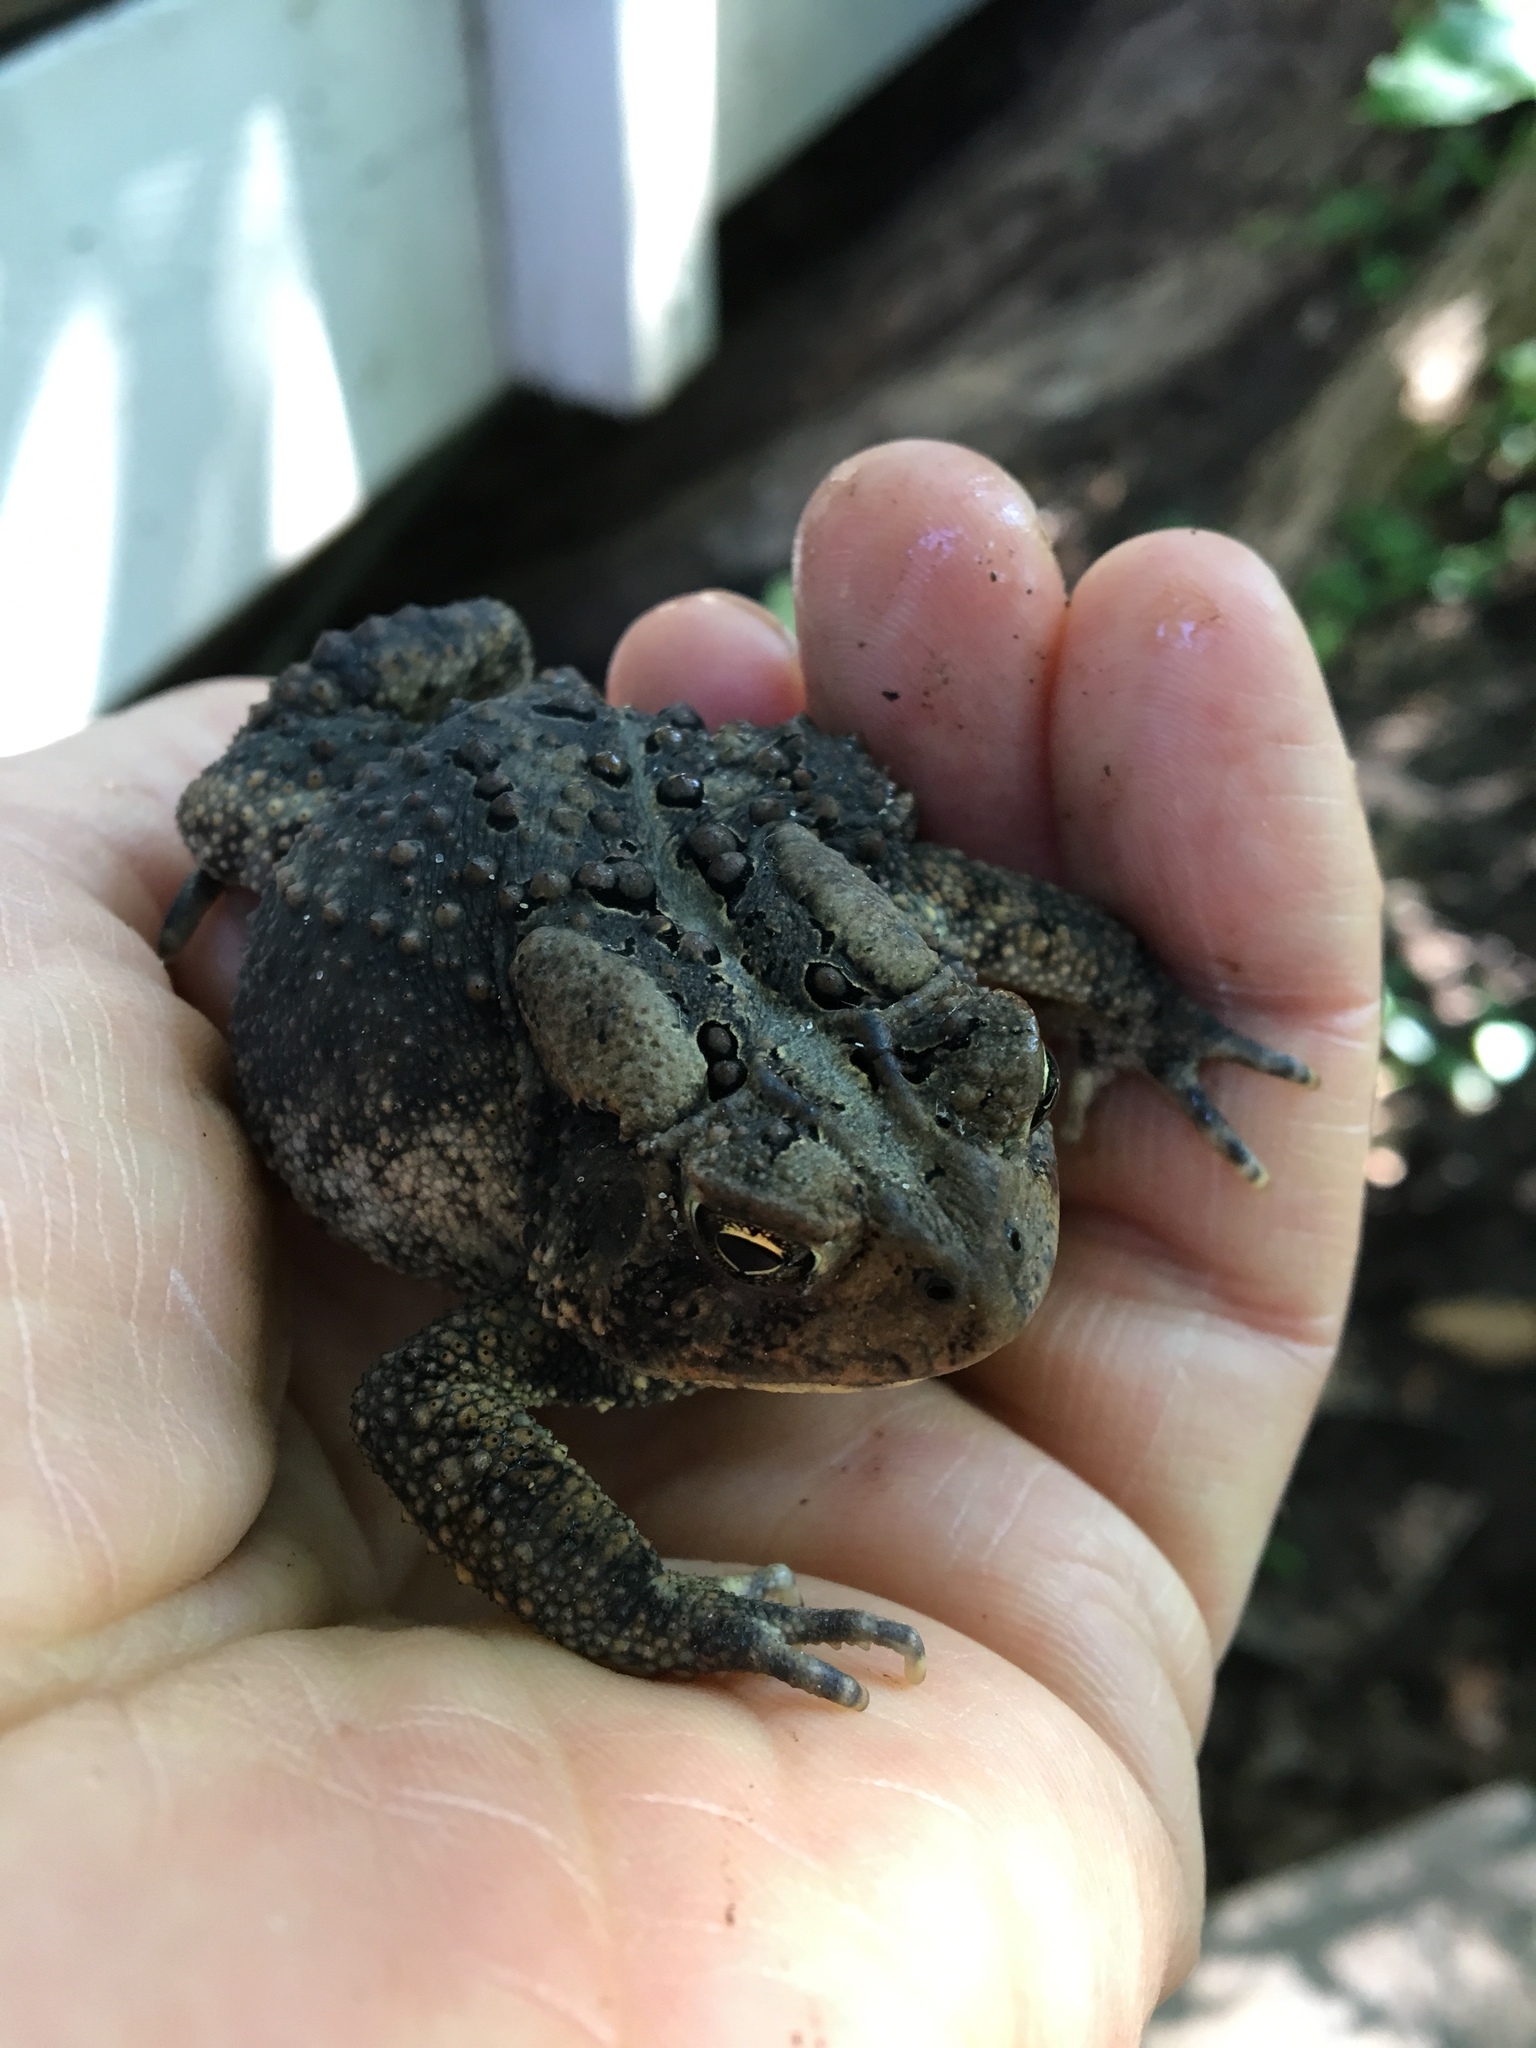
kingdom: Animalia
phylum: Chordata
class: Amphibia
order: Anura
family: Bufonidae
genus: Anaxyrus
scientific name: Anaxyrus americanus
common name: American toad
